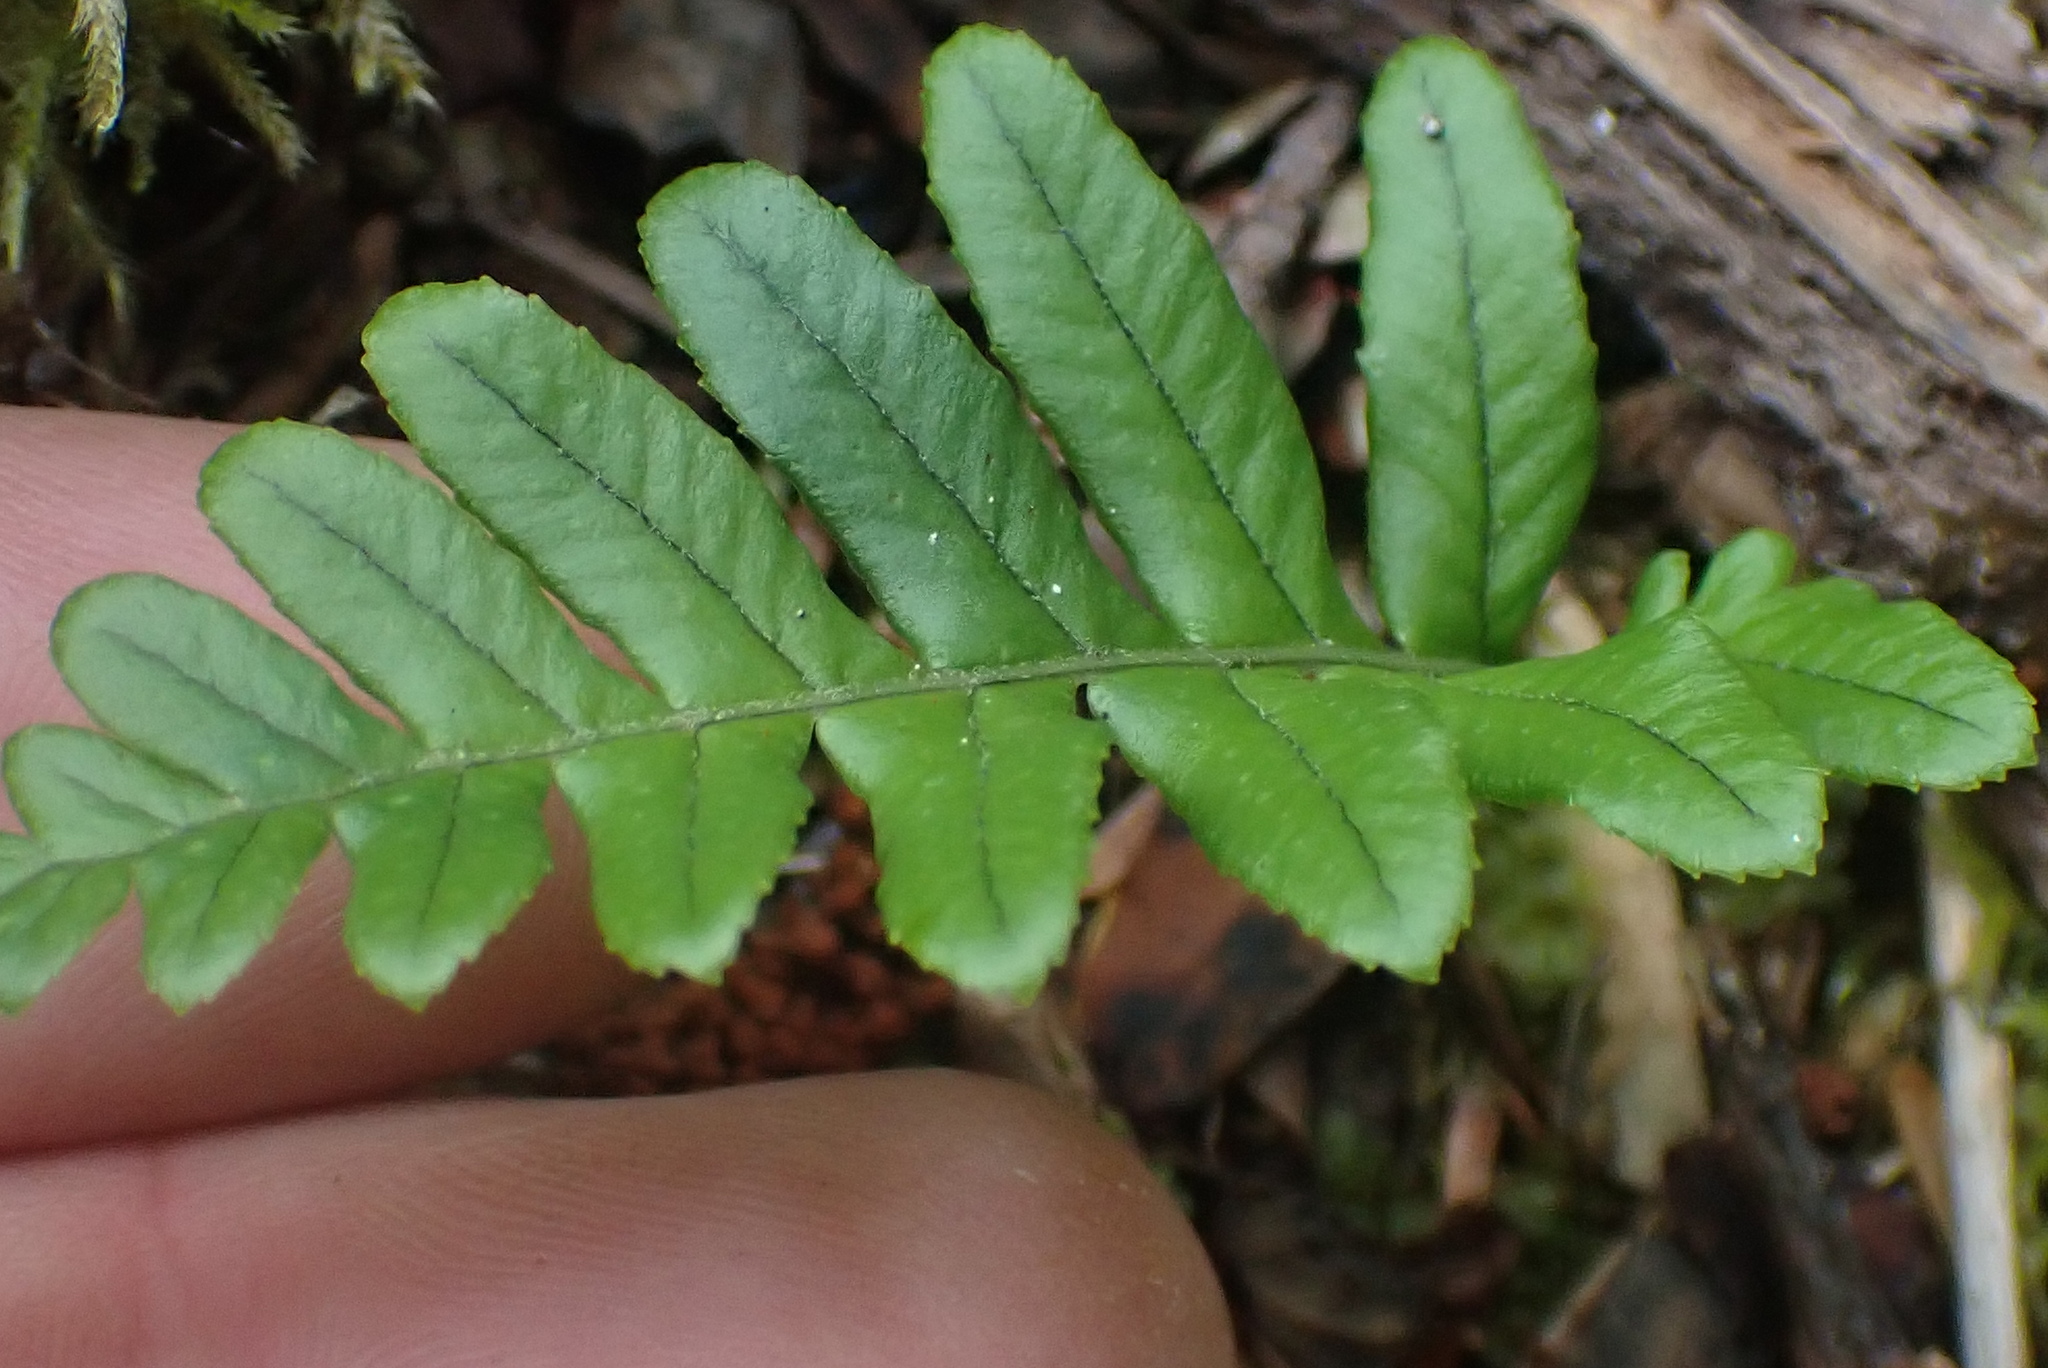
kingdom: Plantae
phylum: Tracheophyta
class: Polypodiopsida
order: Polypodiales
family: Polypodiaceae
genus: Polypodium
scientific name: Polypodium glycyrrhiza
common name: Licorice fern
